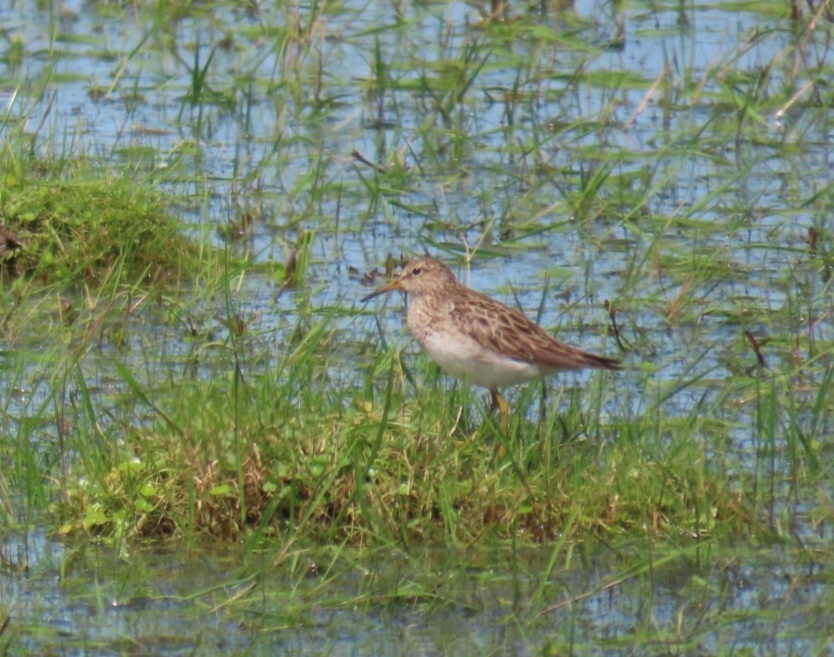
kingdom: Animalia
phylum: Chordata
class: Aves
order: Charadriiformes
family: Scolopacidae
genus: Calidris
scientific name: Calidris melanotos
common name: Pectoral sandpiper
